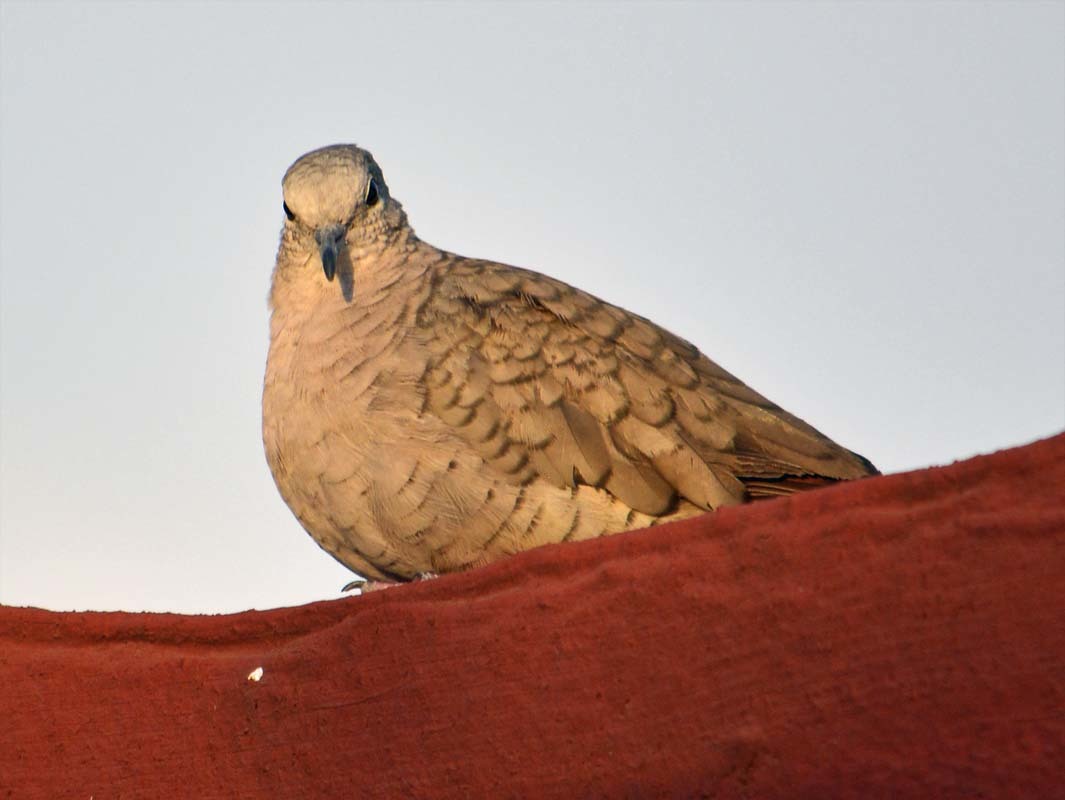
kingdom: Animalia
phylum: Chordata
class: Aves
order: Columbiformes
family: Columbidae
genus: Columbina
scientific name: Columbina inca
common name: Inca dove
